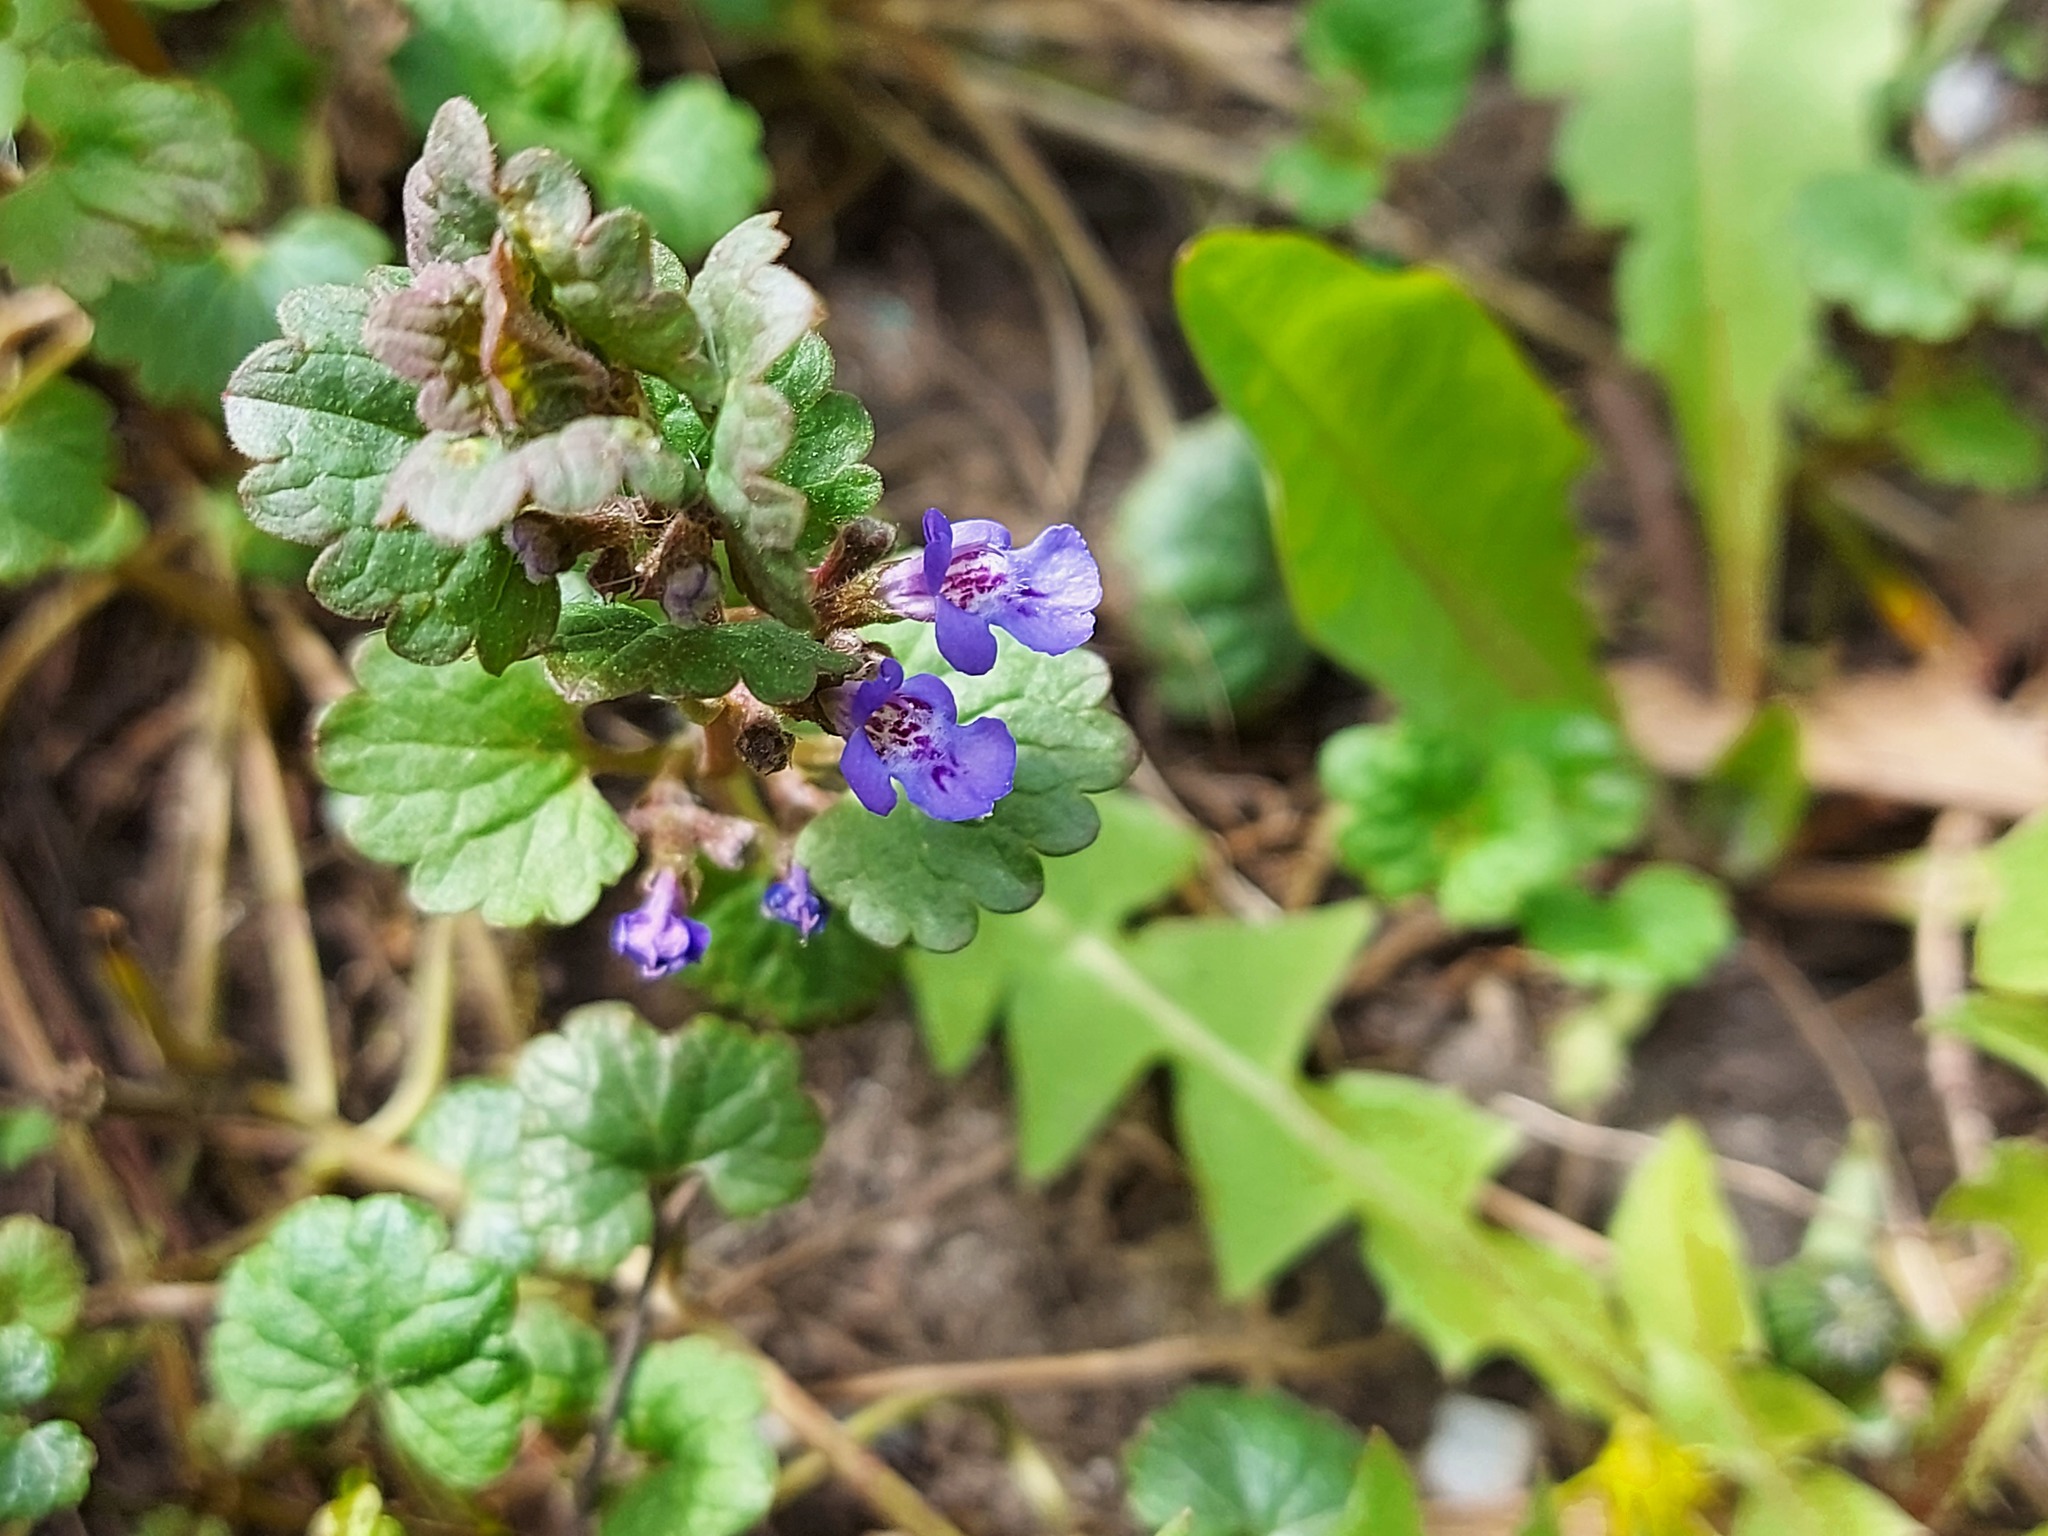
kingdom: Plantae
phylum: Tracheophyta
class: Magnoliopsida
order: Lamiales
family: Lamiaceae
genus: Glechoma
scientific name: Glechoma hederacea
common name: Ground ivy
